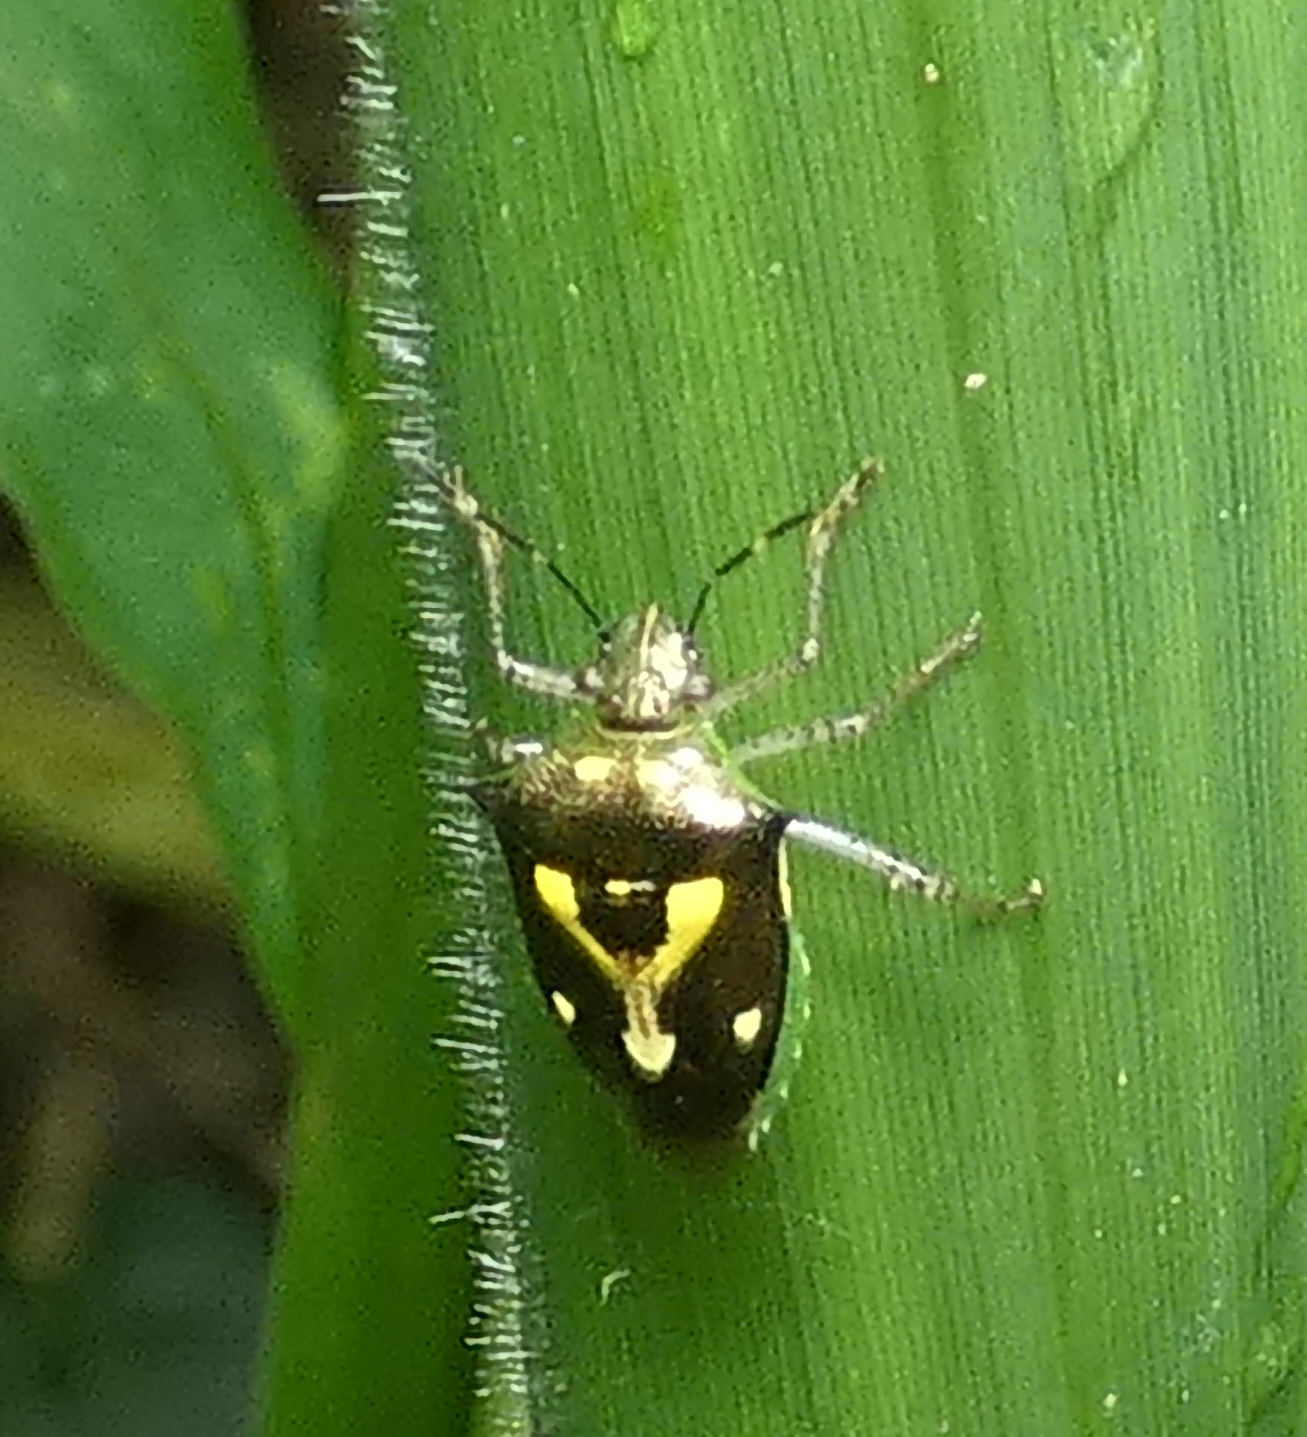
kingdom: Animalia
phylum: Arthropoda
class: Insecta
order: Hemiptera
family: Pentatomidae
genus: Mormidea
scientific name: Mormidea ypsilon
